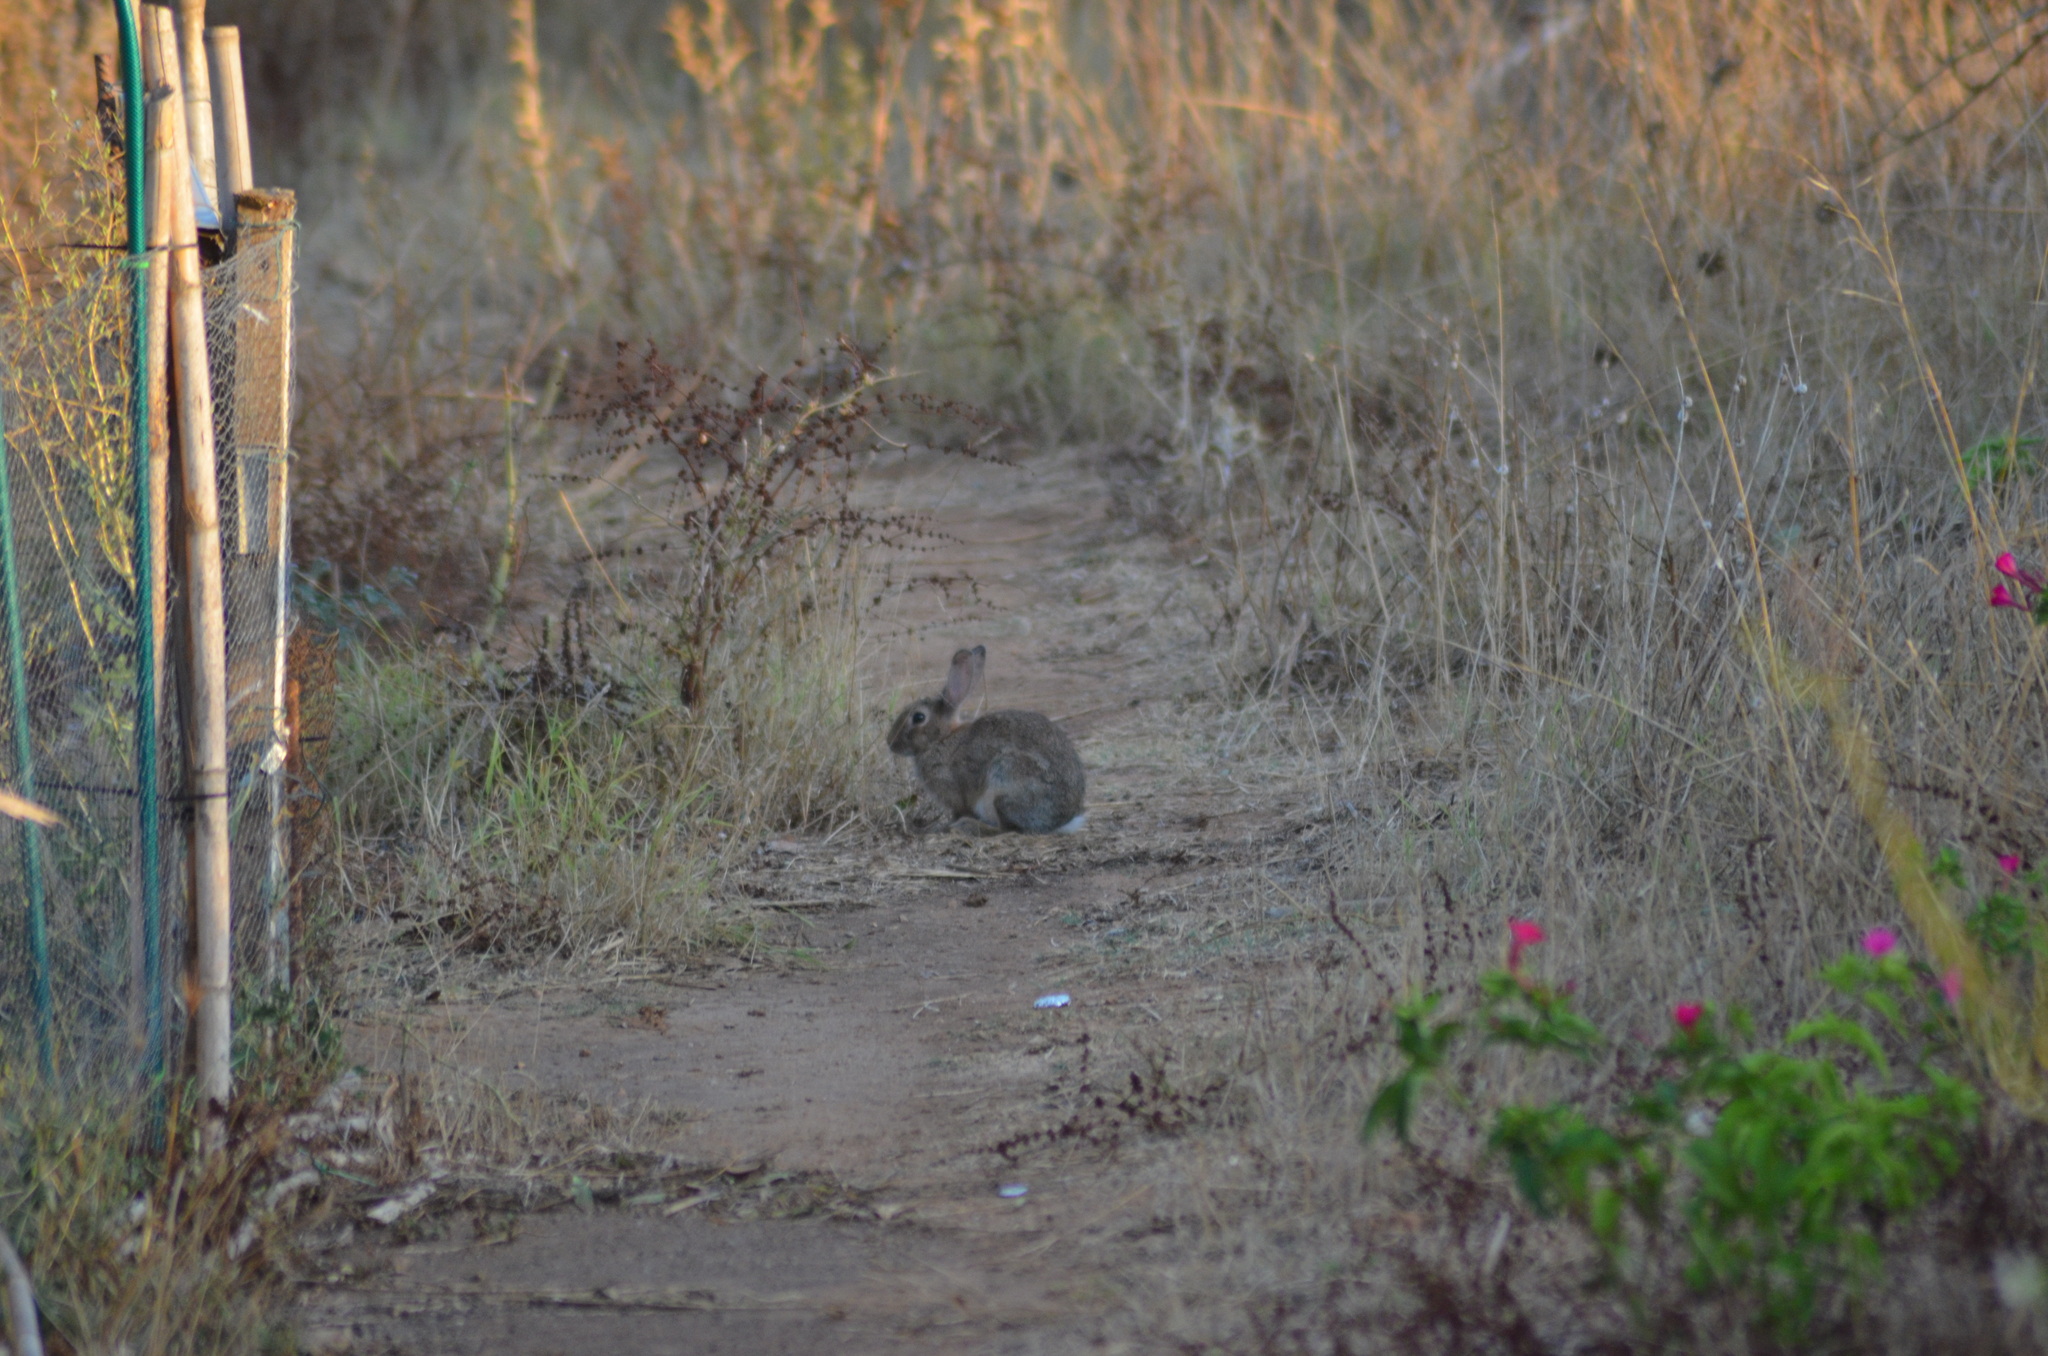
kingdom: Animalia
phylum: Chordata
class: Mammalia
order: Lagomorpha
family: Leporidae
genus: Oryctolagus
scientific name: Oryctolagus cuniculus
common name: European rabbit
